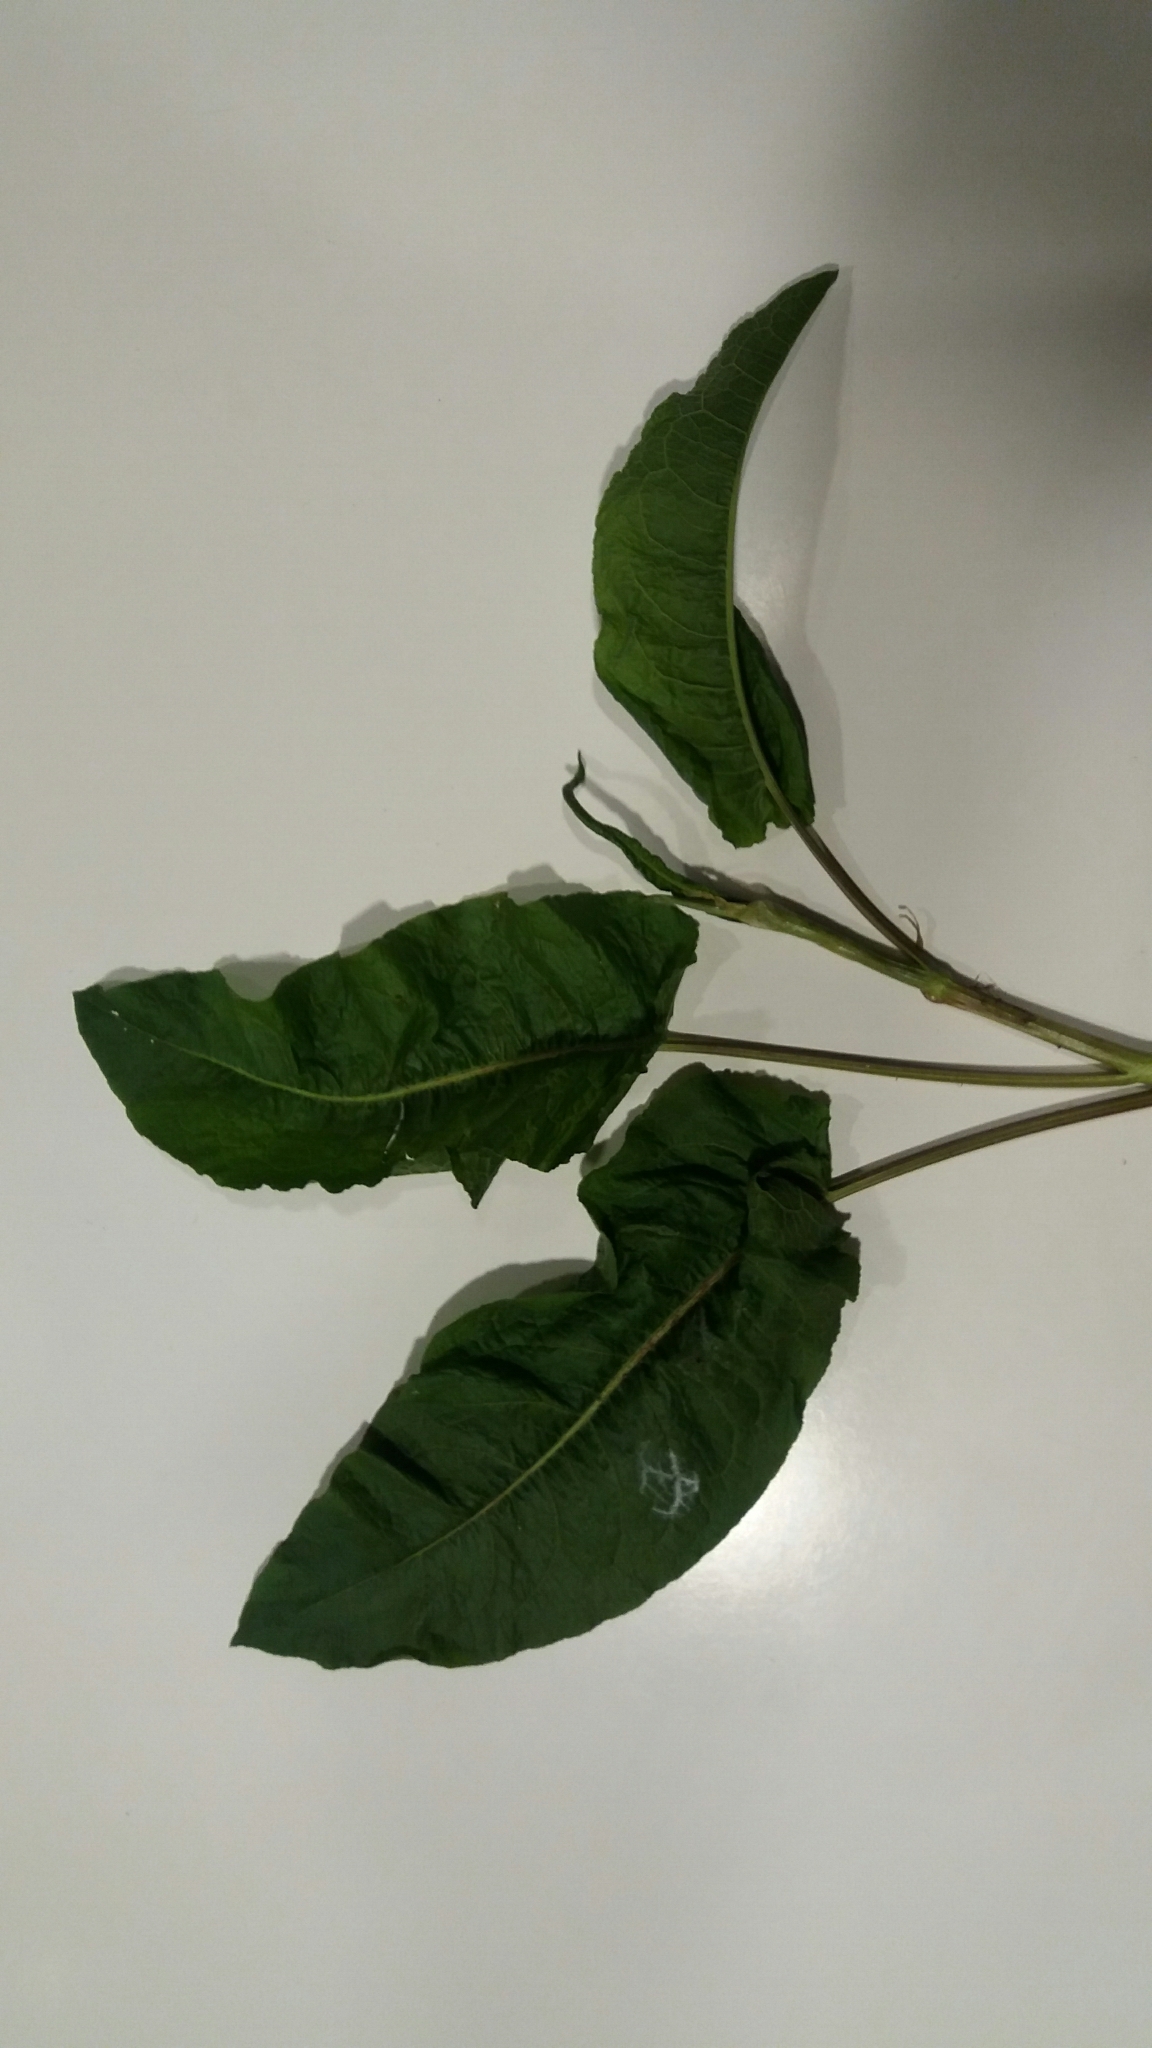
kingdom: Plantae
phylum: Tracheophyta
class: Magnoliopsida
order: Caryophyllales
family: Polygonaceae
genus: Rumex
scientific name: Rumex obtusifolius
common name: Bitter dock
